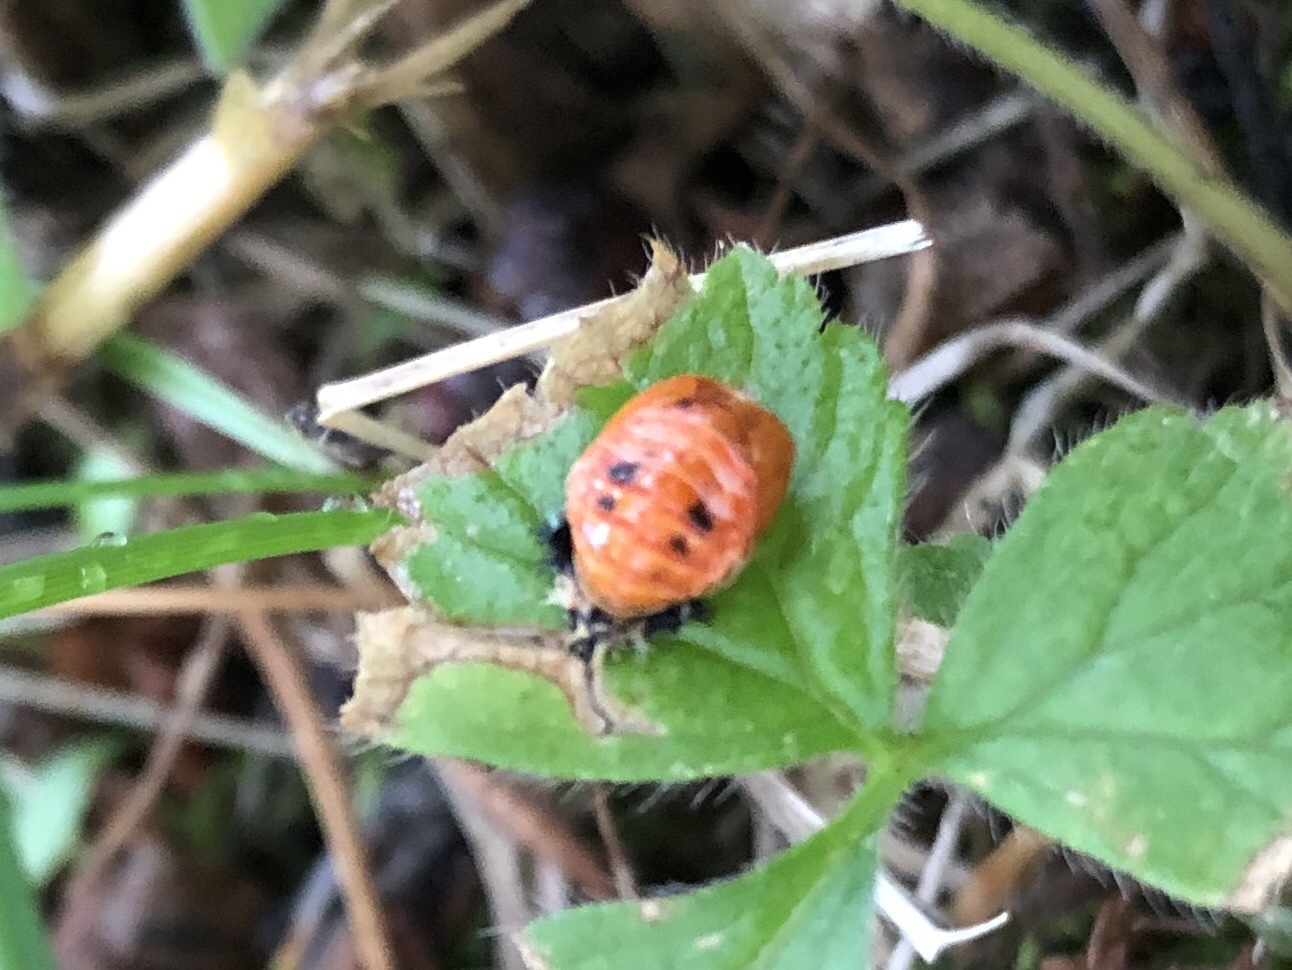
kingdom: Animalia
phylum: Arthropoda
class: Insecta
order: Coleoptera
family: Coccinellidae
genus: Harmonia
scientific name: Harmonia axyridis
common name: Harlequin ladybird
